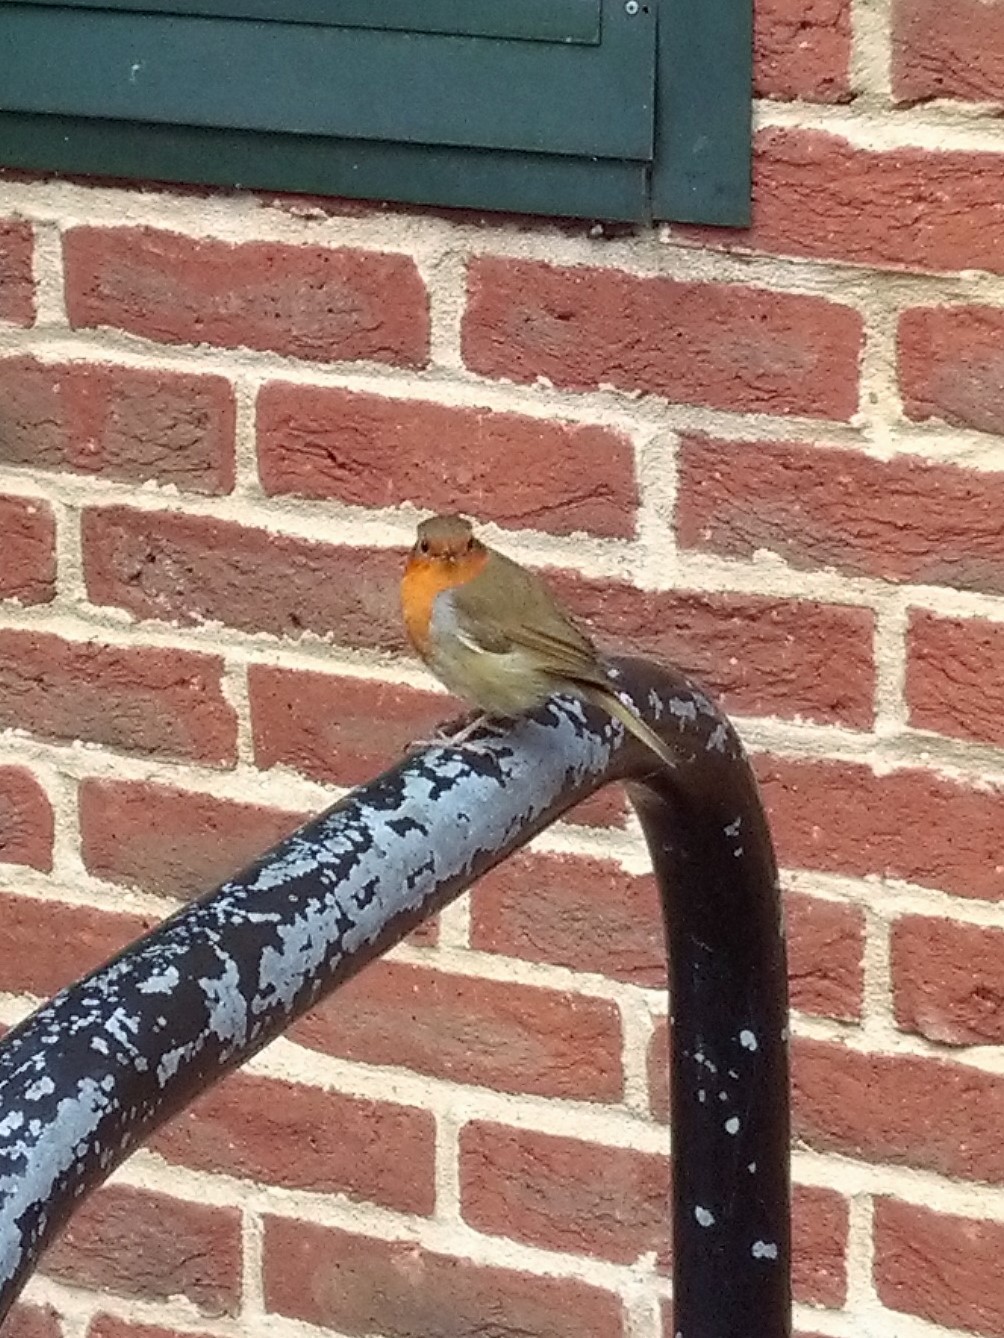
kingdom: Animalia
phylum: Chordata
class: Aves
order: Passeriformes
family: Muscicapidae
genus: Erithacus
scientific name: Erithacus rubecula
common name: European robin
